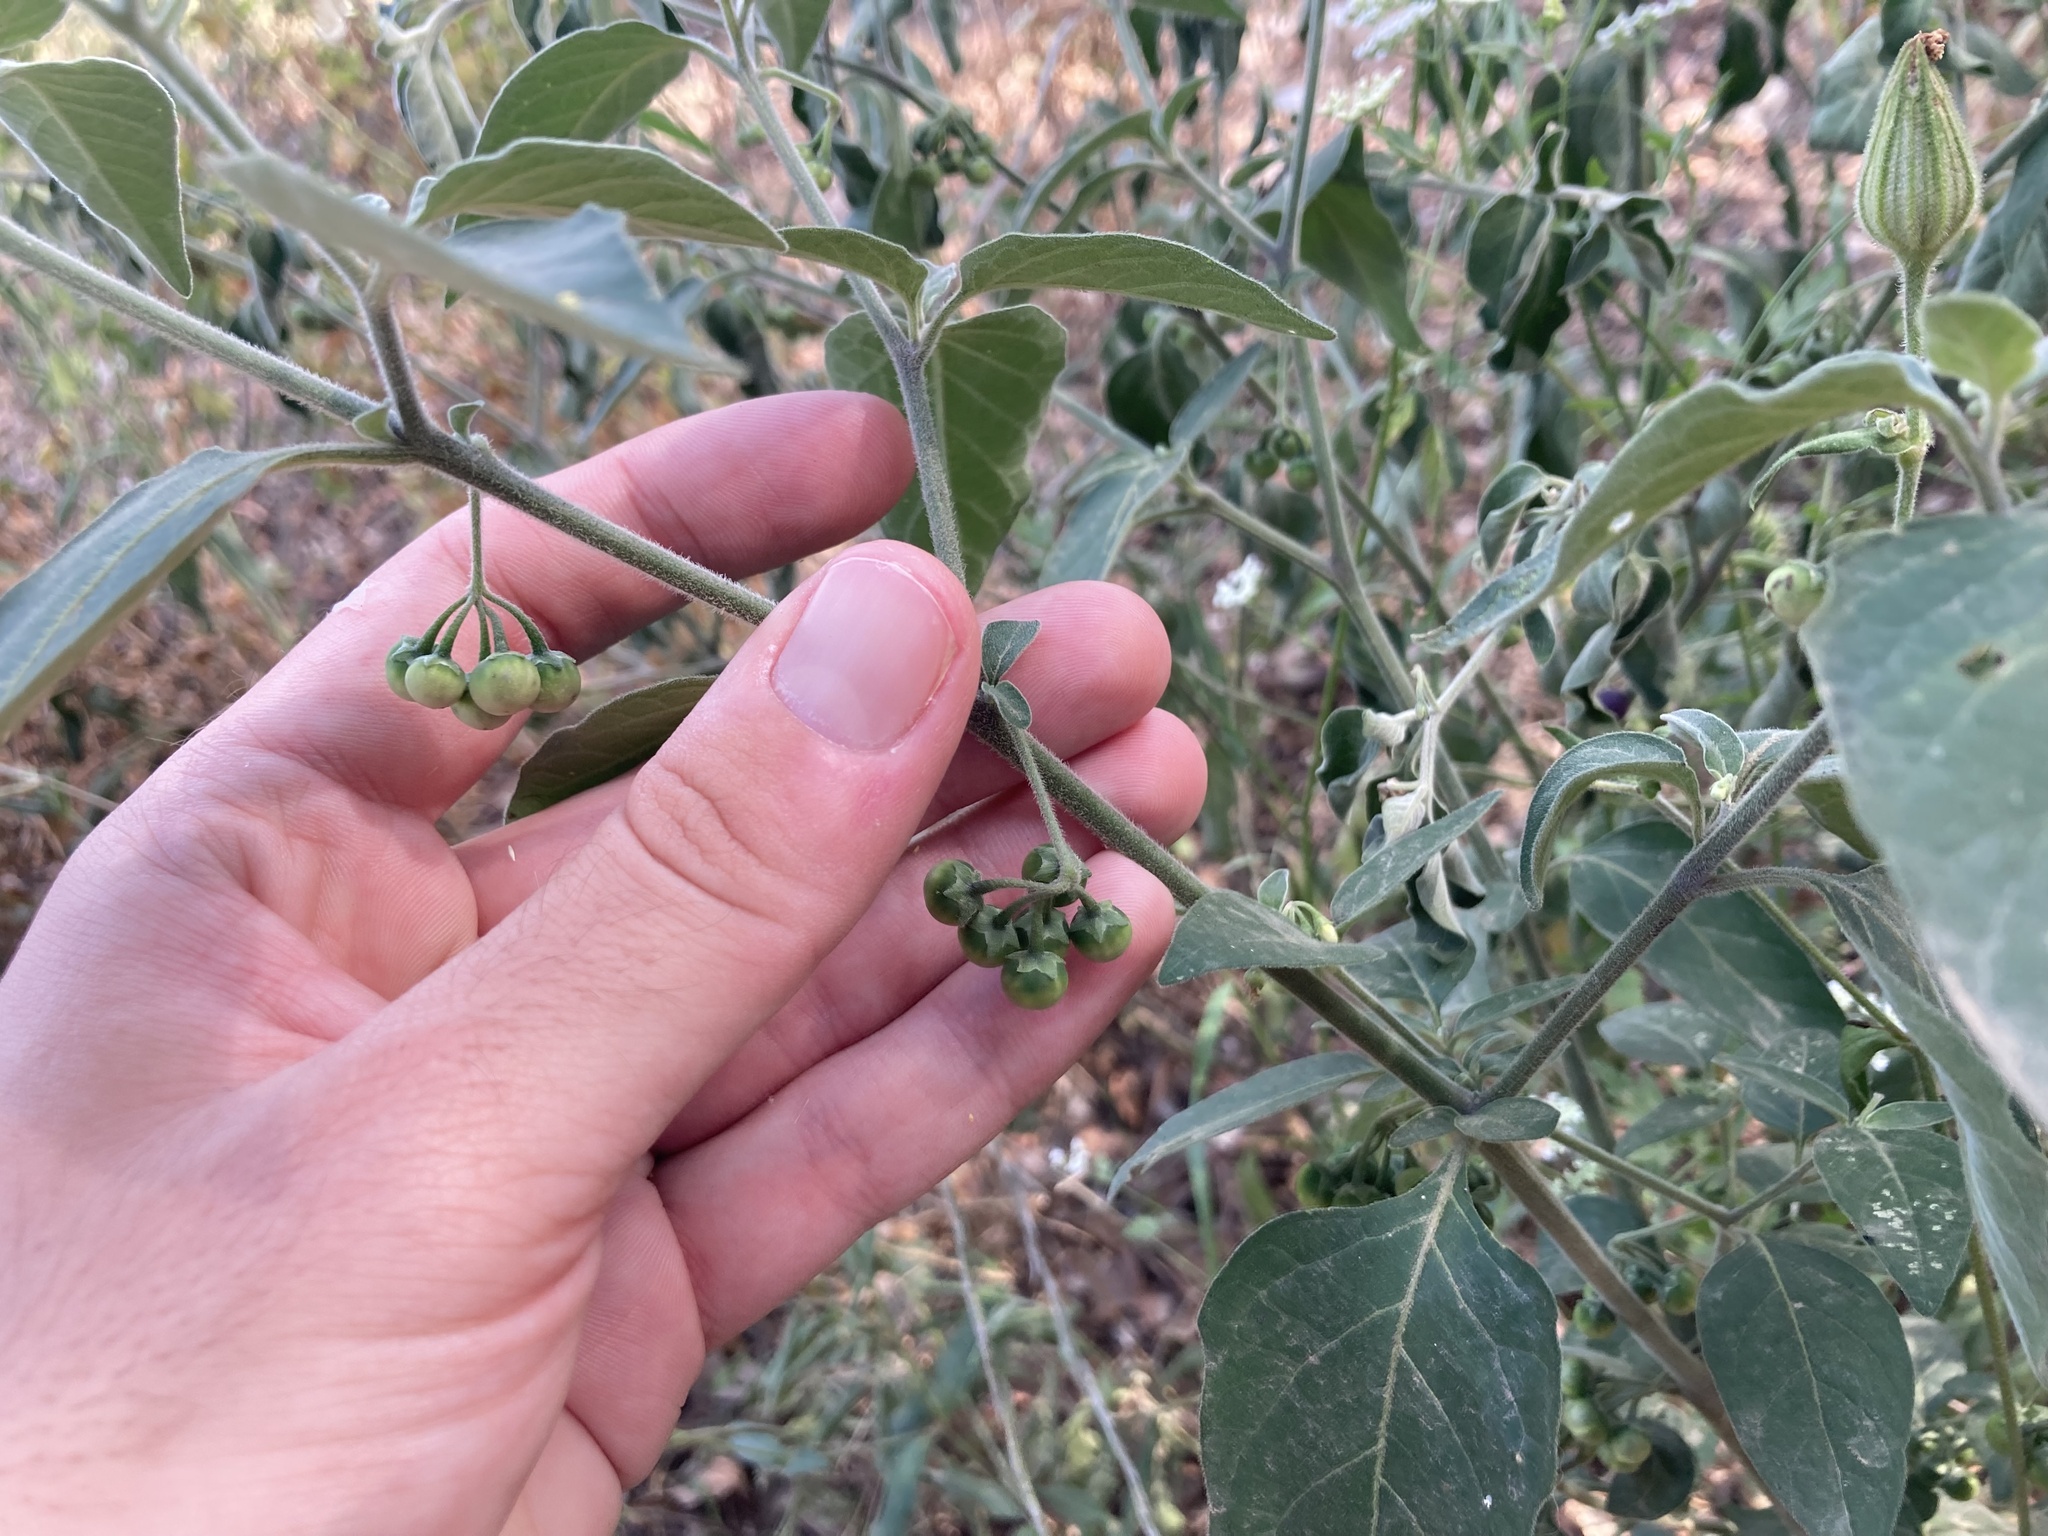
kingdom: Plantae
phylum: Tracheophyta
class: Magnoliopsida
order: Solanales
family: Solanaceae
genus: Solanum
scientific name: Solanum chenopodioides
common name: Tall nightshade
